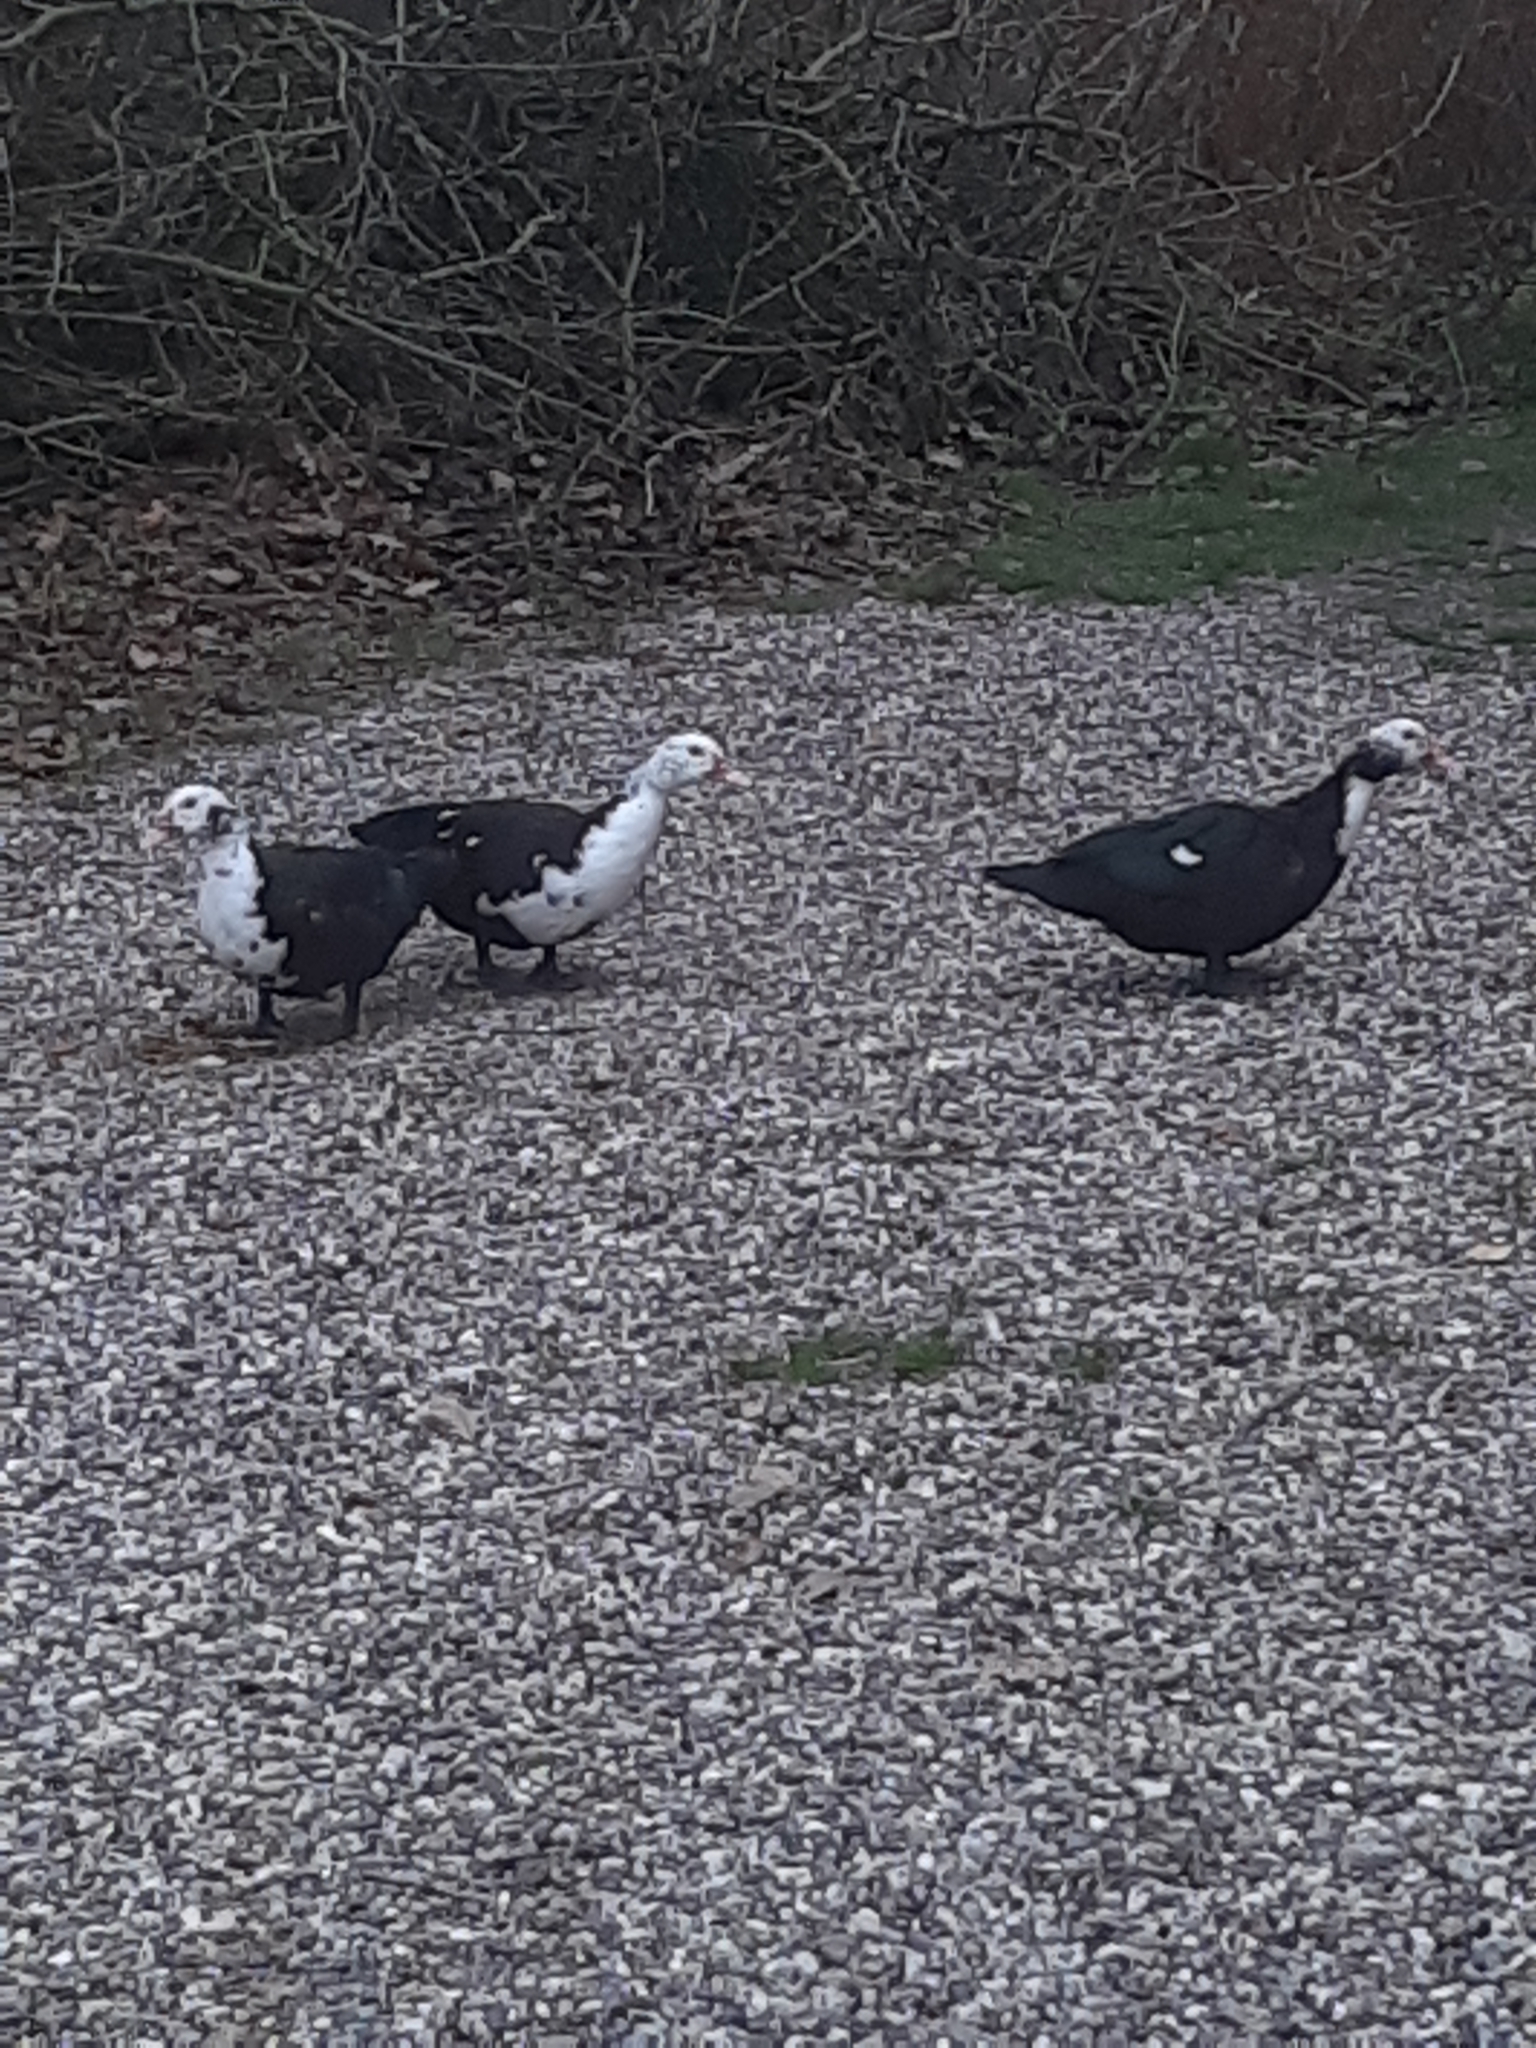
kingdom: Animalia
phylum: Chordata
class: Aves
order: Anseriformes
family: Anatidae
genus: Cairina
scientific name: Cairina moschata
